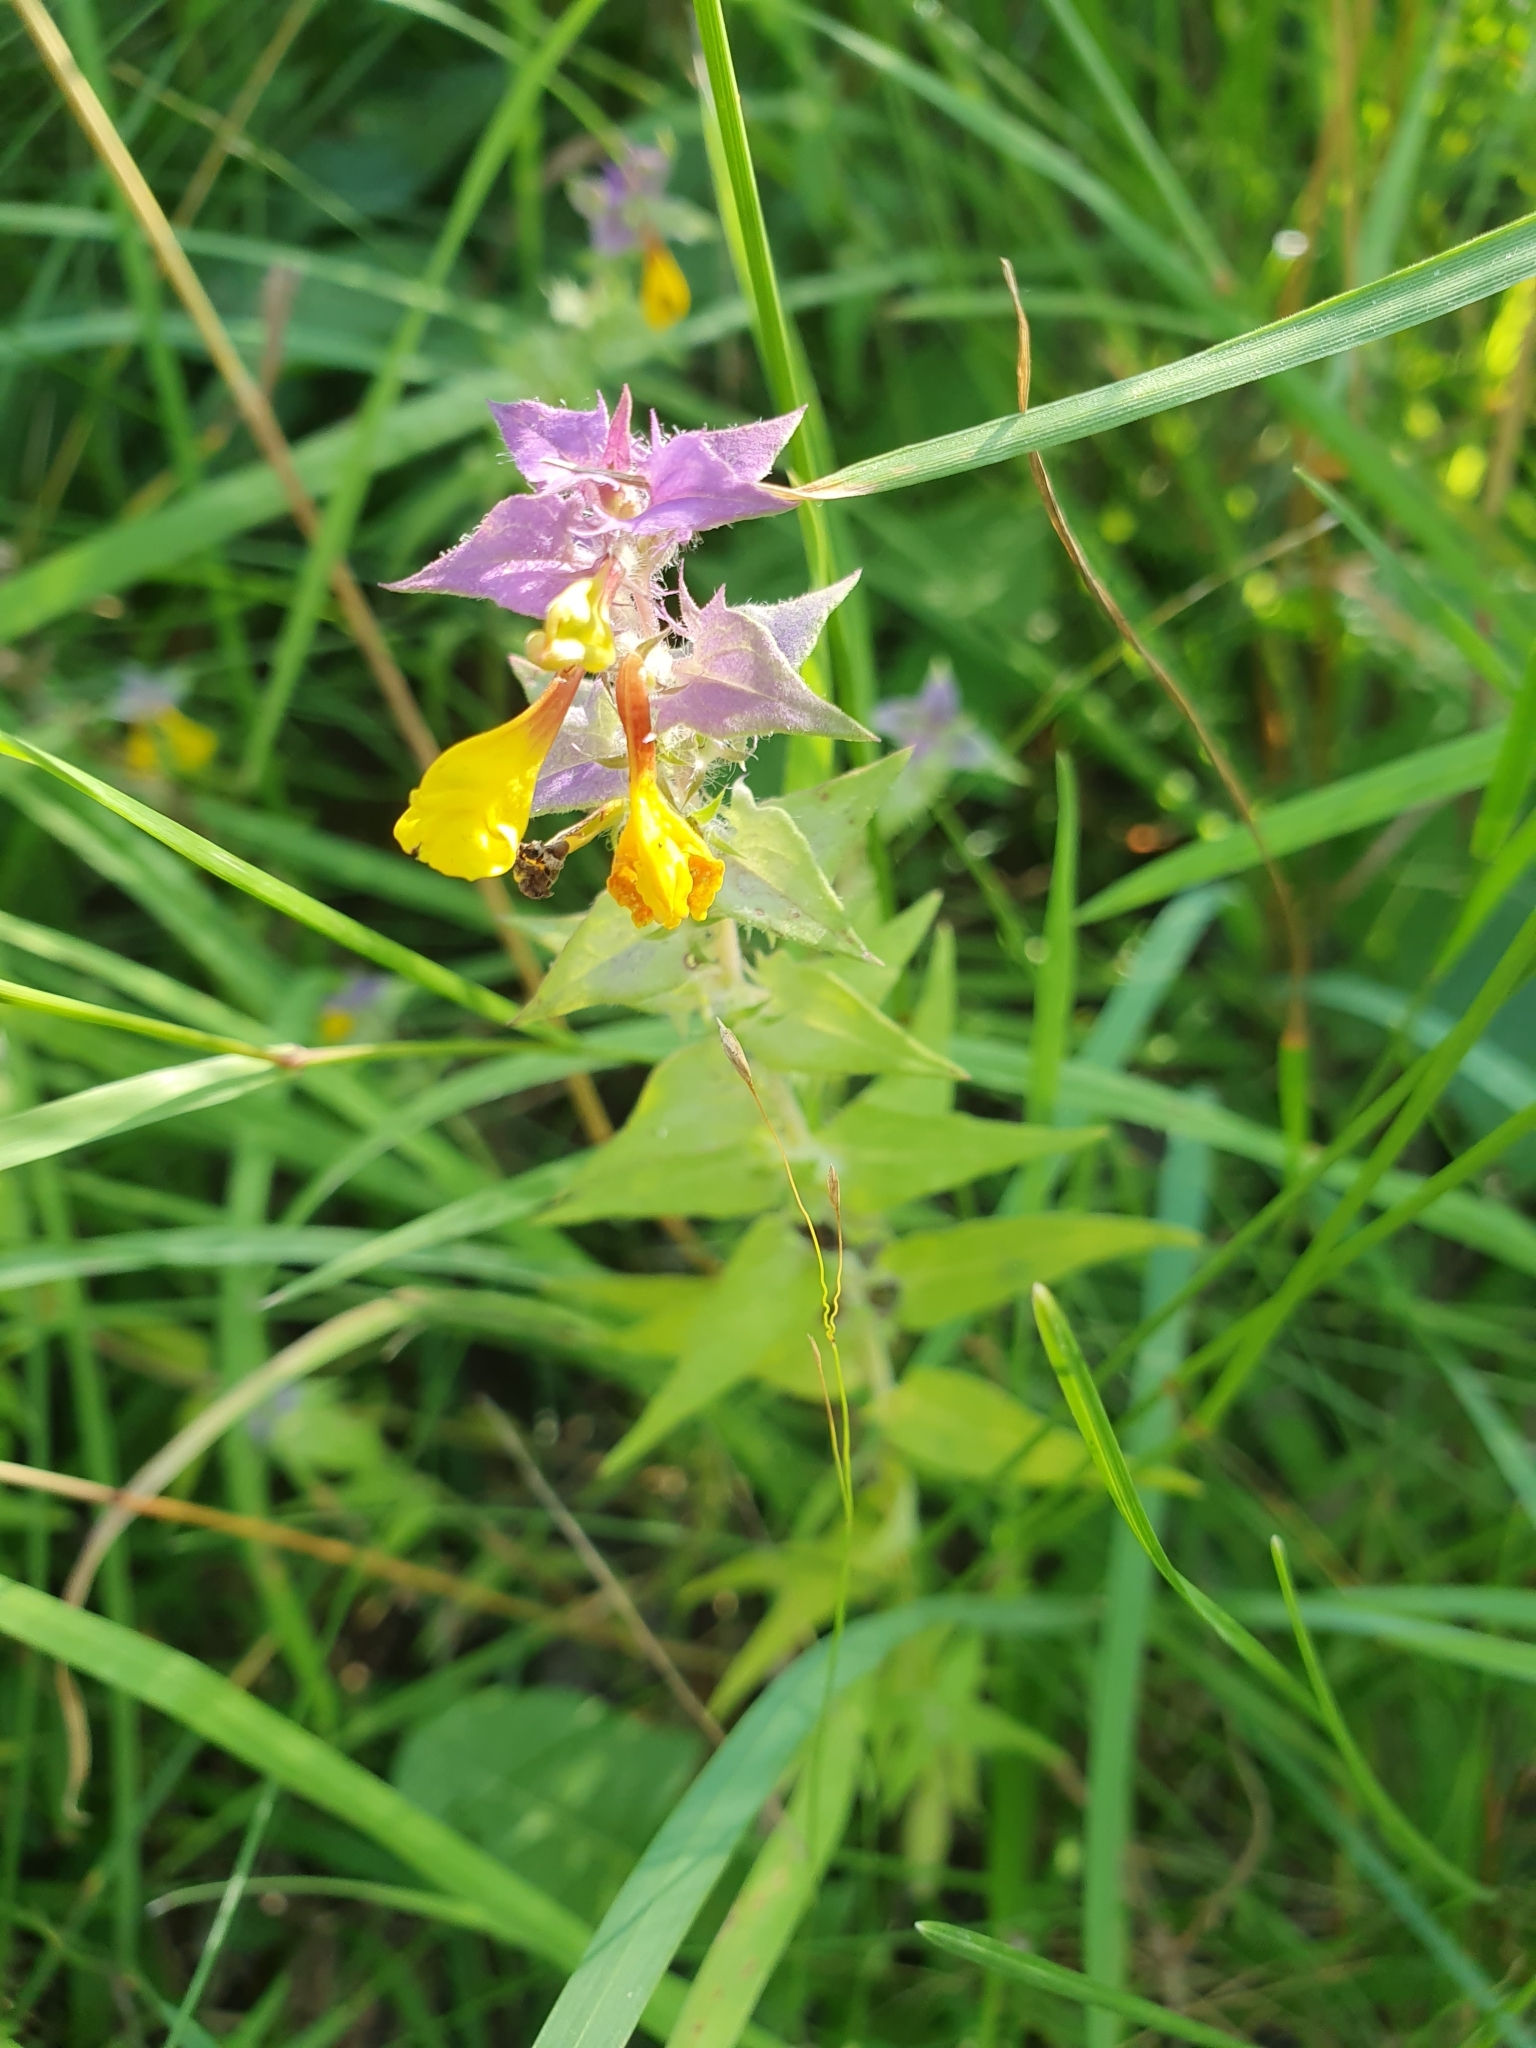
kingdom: Plantae
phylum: Tracheophyta
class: Magnoliopsida
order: Lamiales
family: Orobanchaceae
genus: Melampyrum
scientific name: Melampyrum nemorosum
